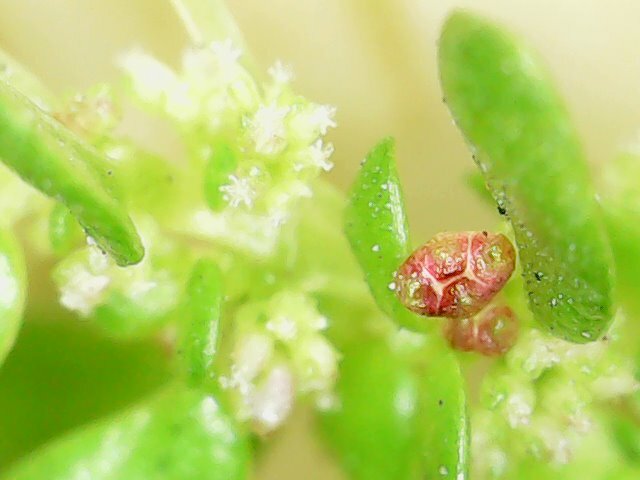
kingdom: Plantae
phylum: Tracheophyta
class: Magnoliopsida
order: Rosales
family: Urticaceae
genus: Pilea
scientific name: Pilea microphylla
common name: Artillery-plant
